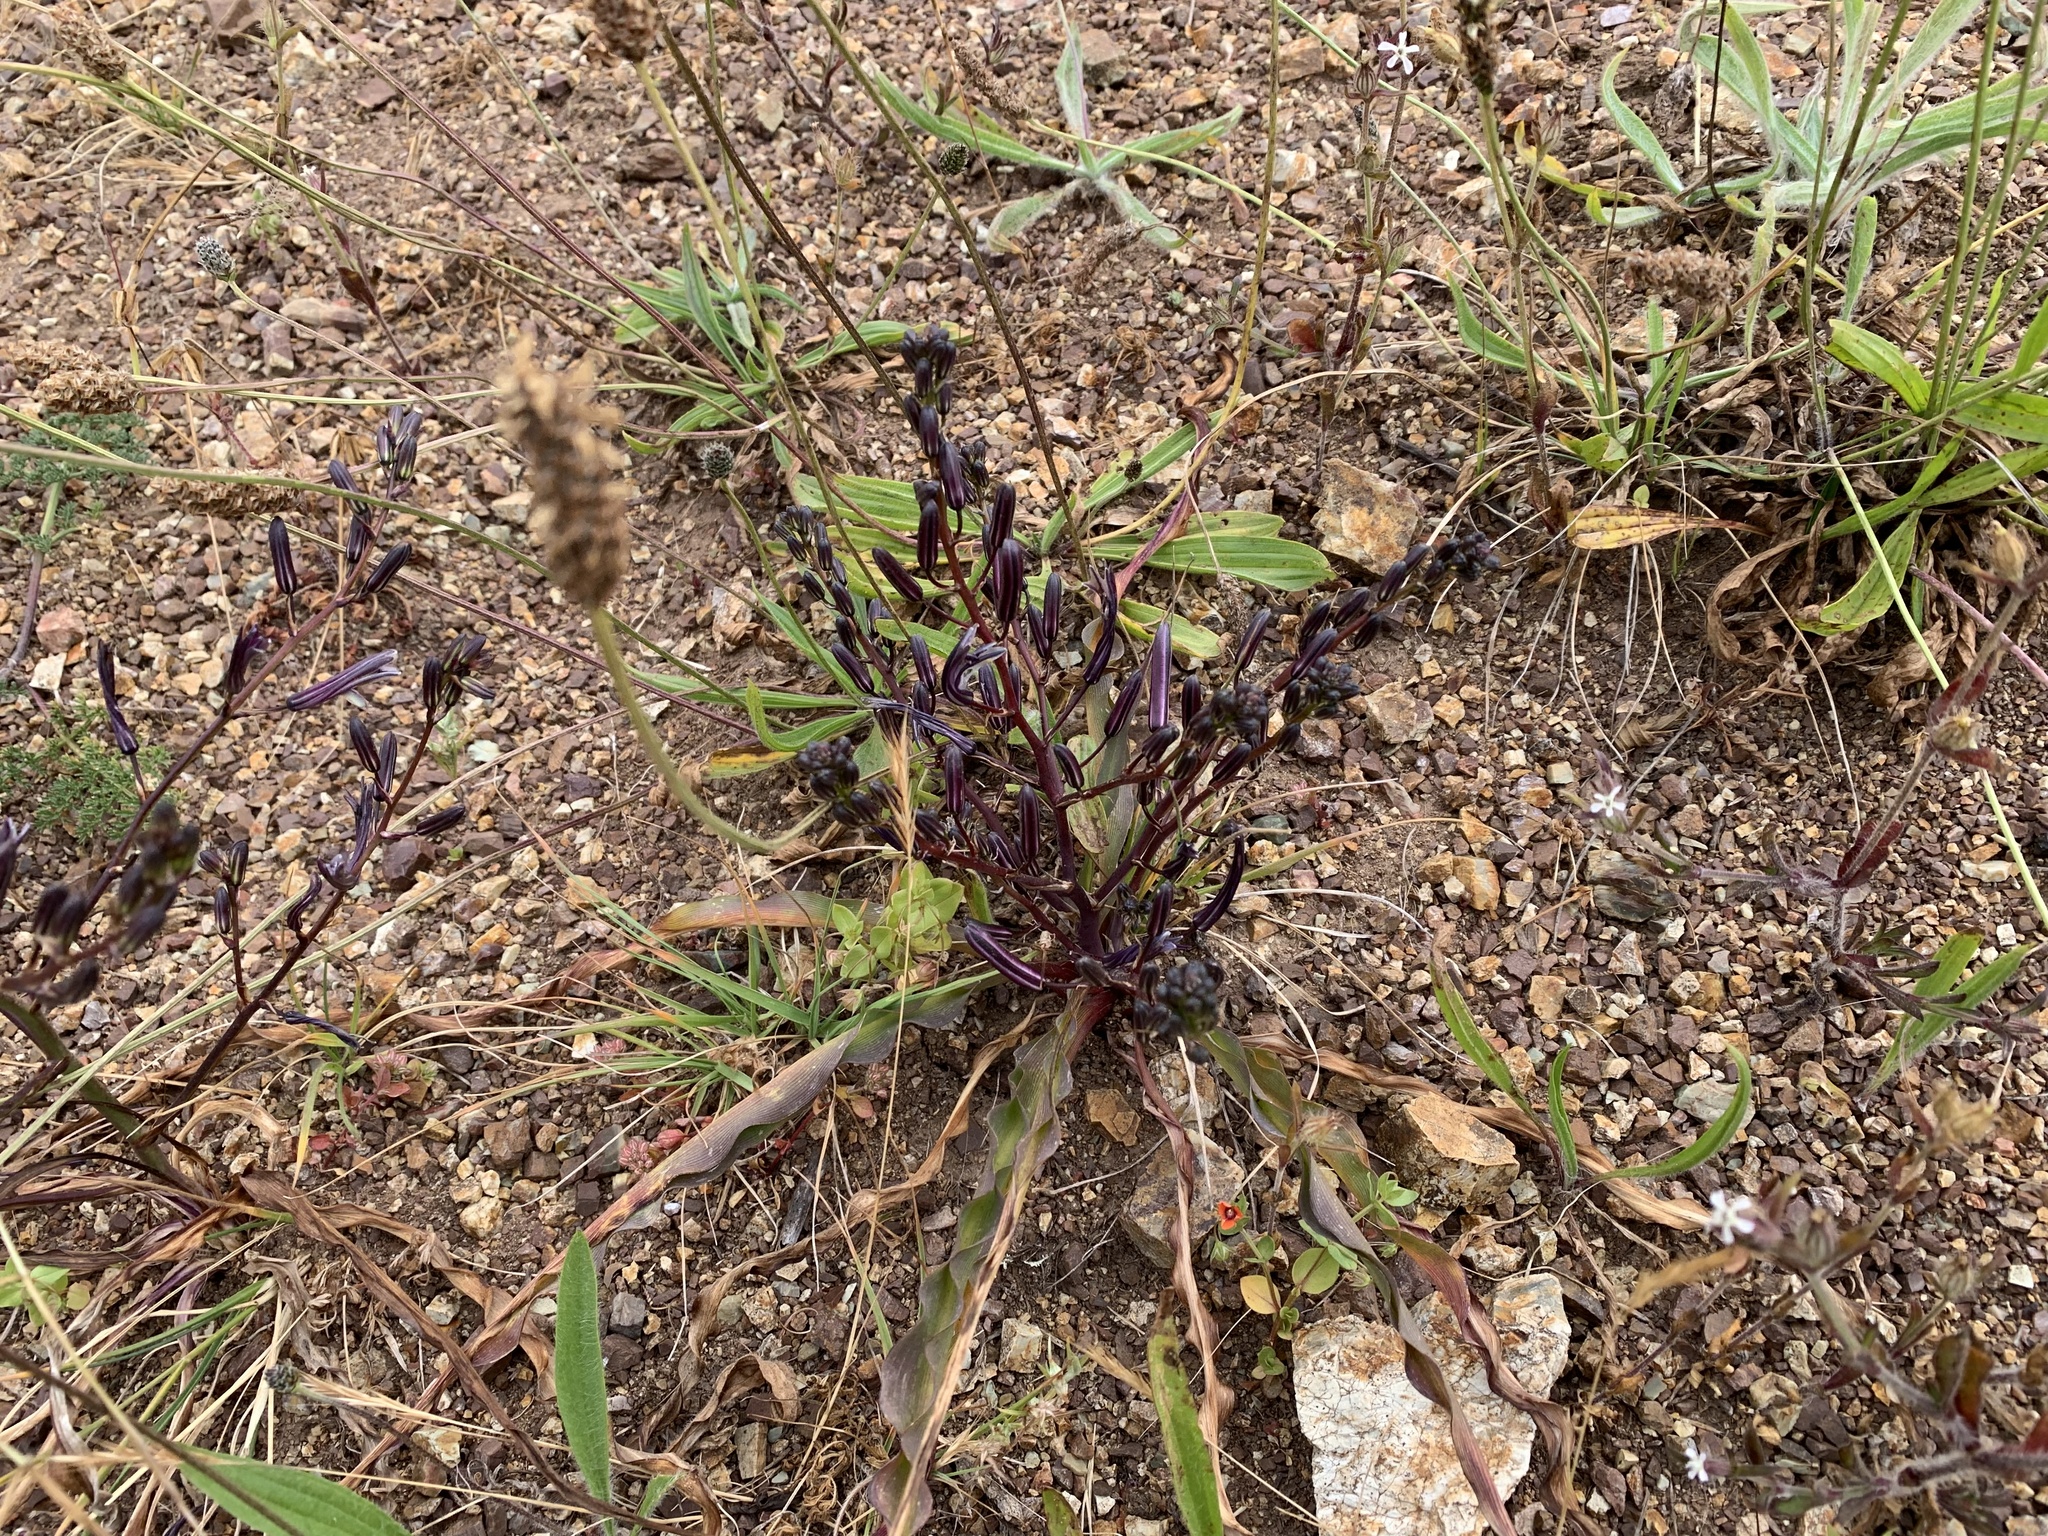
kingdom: Plantae
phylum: Tracheophyta
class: Liliopsida
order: Asparagales
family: Asparagaceae
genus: Chlorogalum
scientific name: Chlorogalum pomeridianum
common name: Amole
